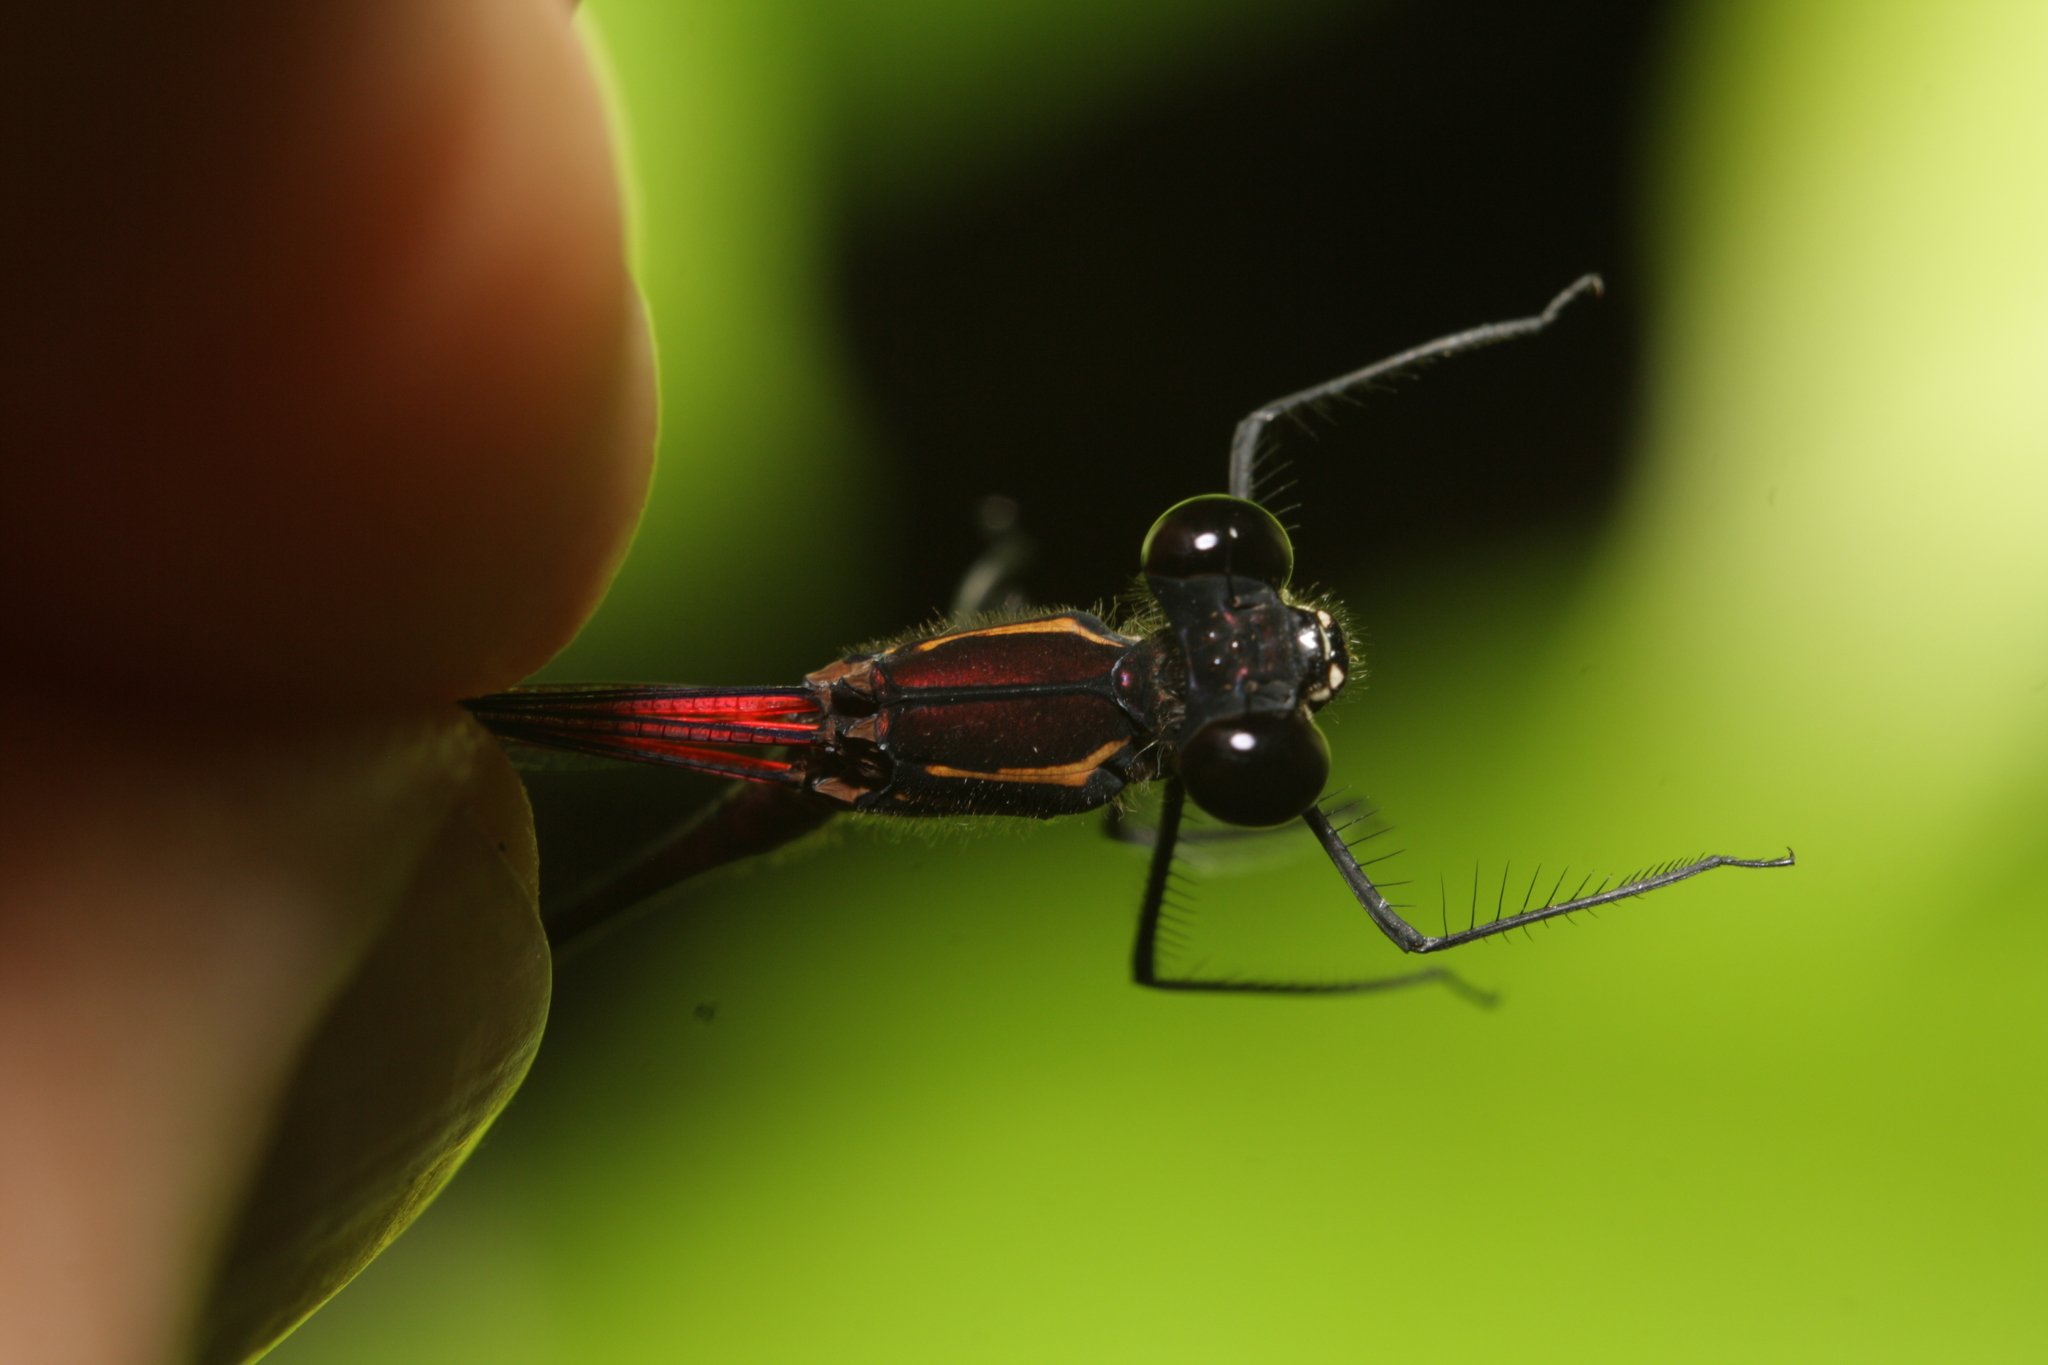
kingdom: Animalia
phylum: Arthropoda
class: Insecta
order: Odonata
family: Calopterygidae
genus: Hetaerina
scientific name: Hetaerina fuscoguttata
